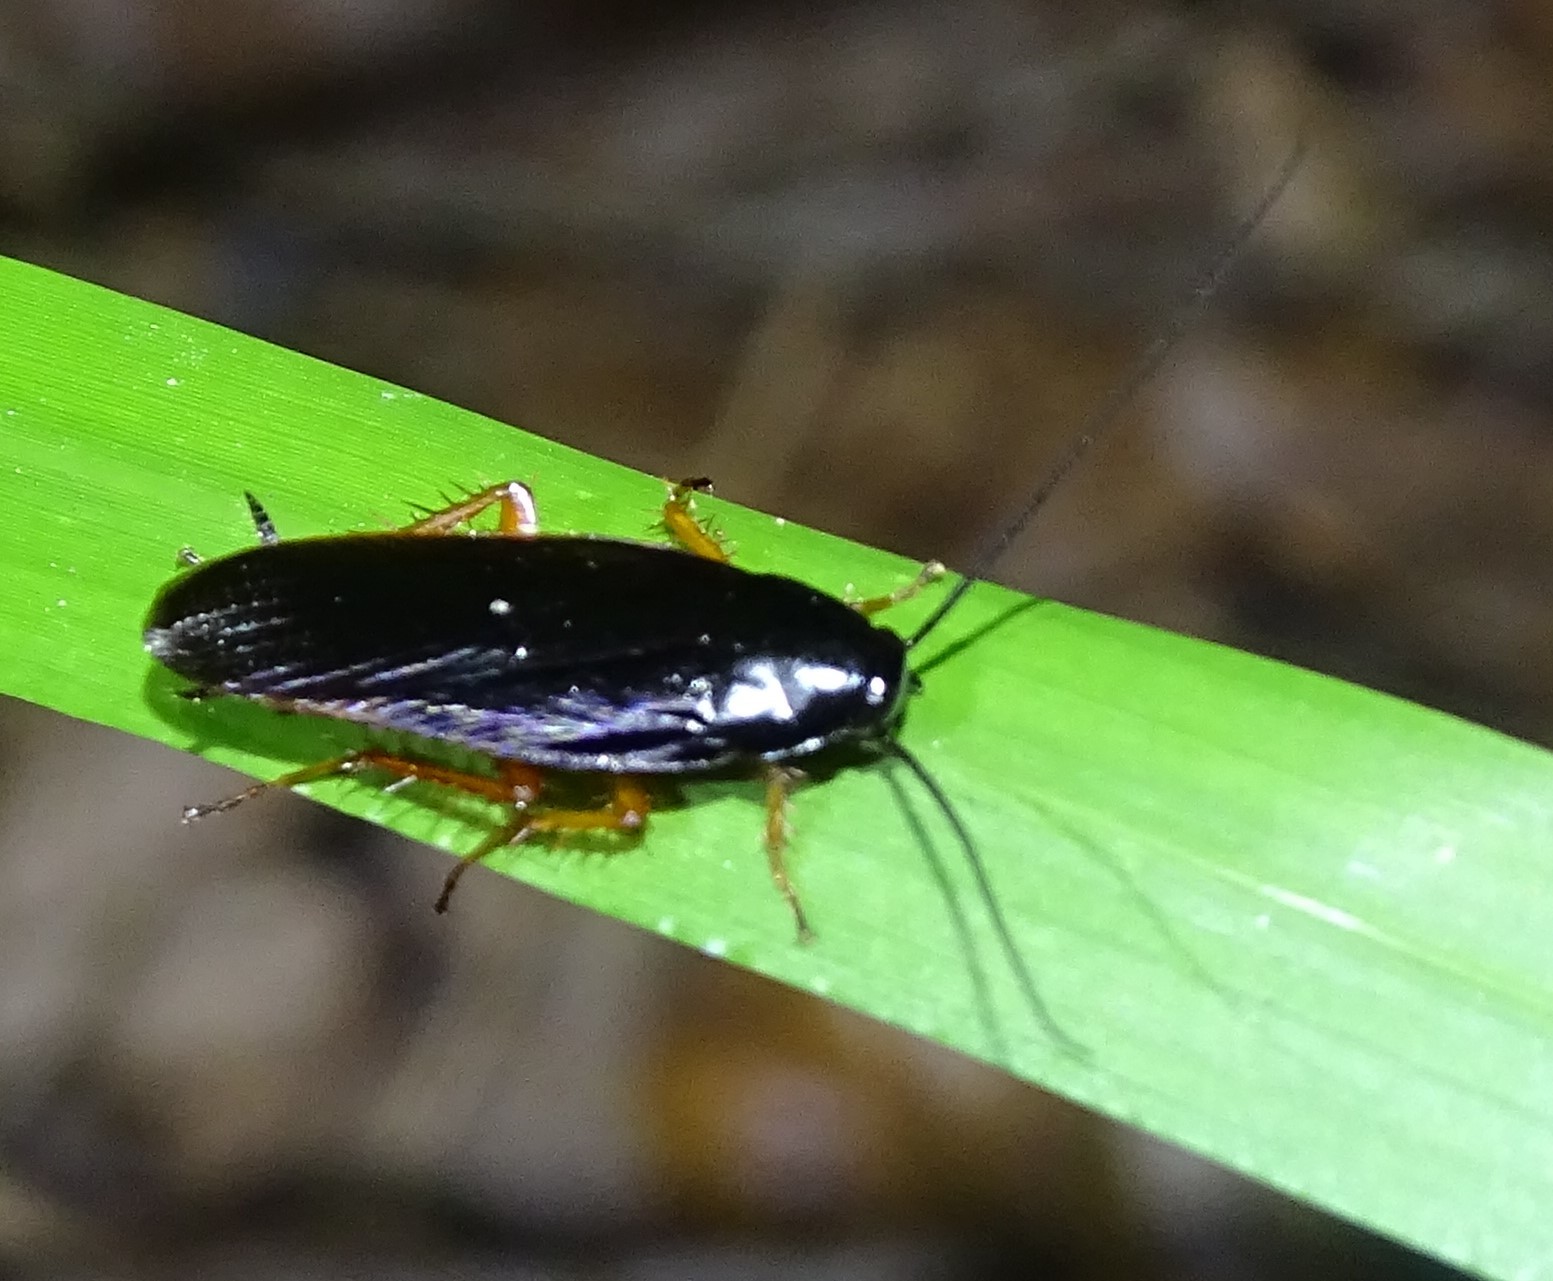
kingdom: Animalia
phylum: Arthropoda
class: Insecta
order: Blattodea
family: Ectobiidae
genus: Ischnoptera
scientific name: Ischnoptera deropeltiformis
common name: Dark wood cockroach
